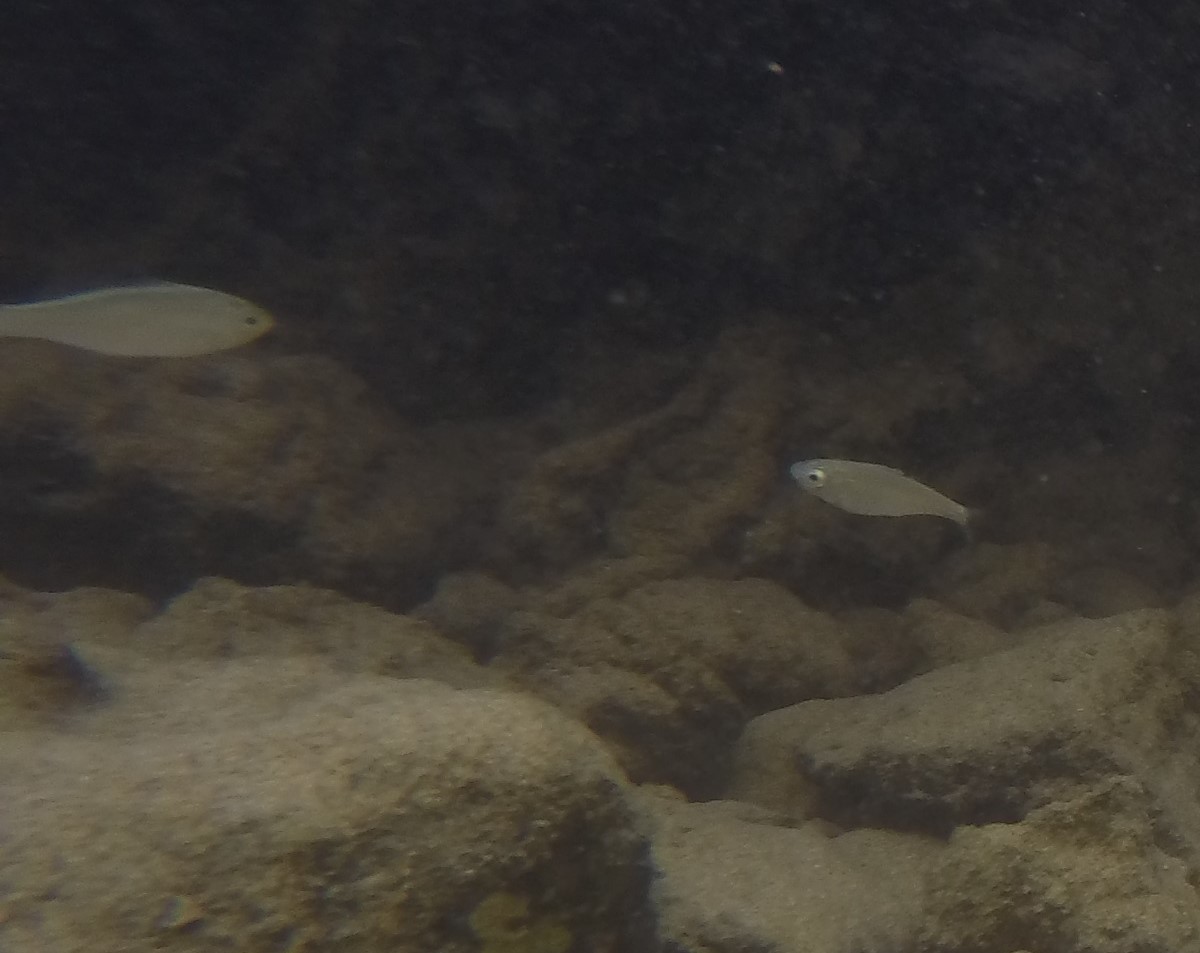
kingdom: Animalia
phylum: Chordata
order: Perciformes
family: Kuhliidae
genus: Kuhlia
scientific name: Kuhlia xenura
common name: Hawaiian flagtail
